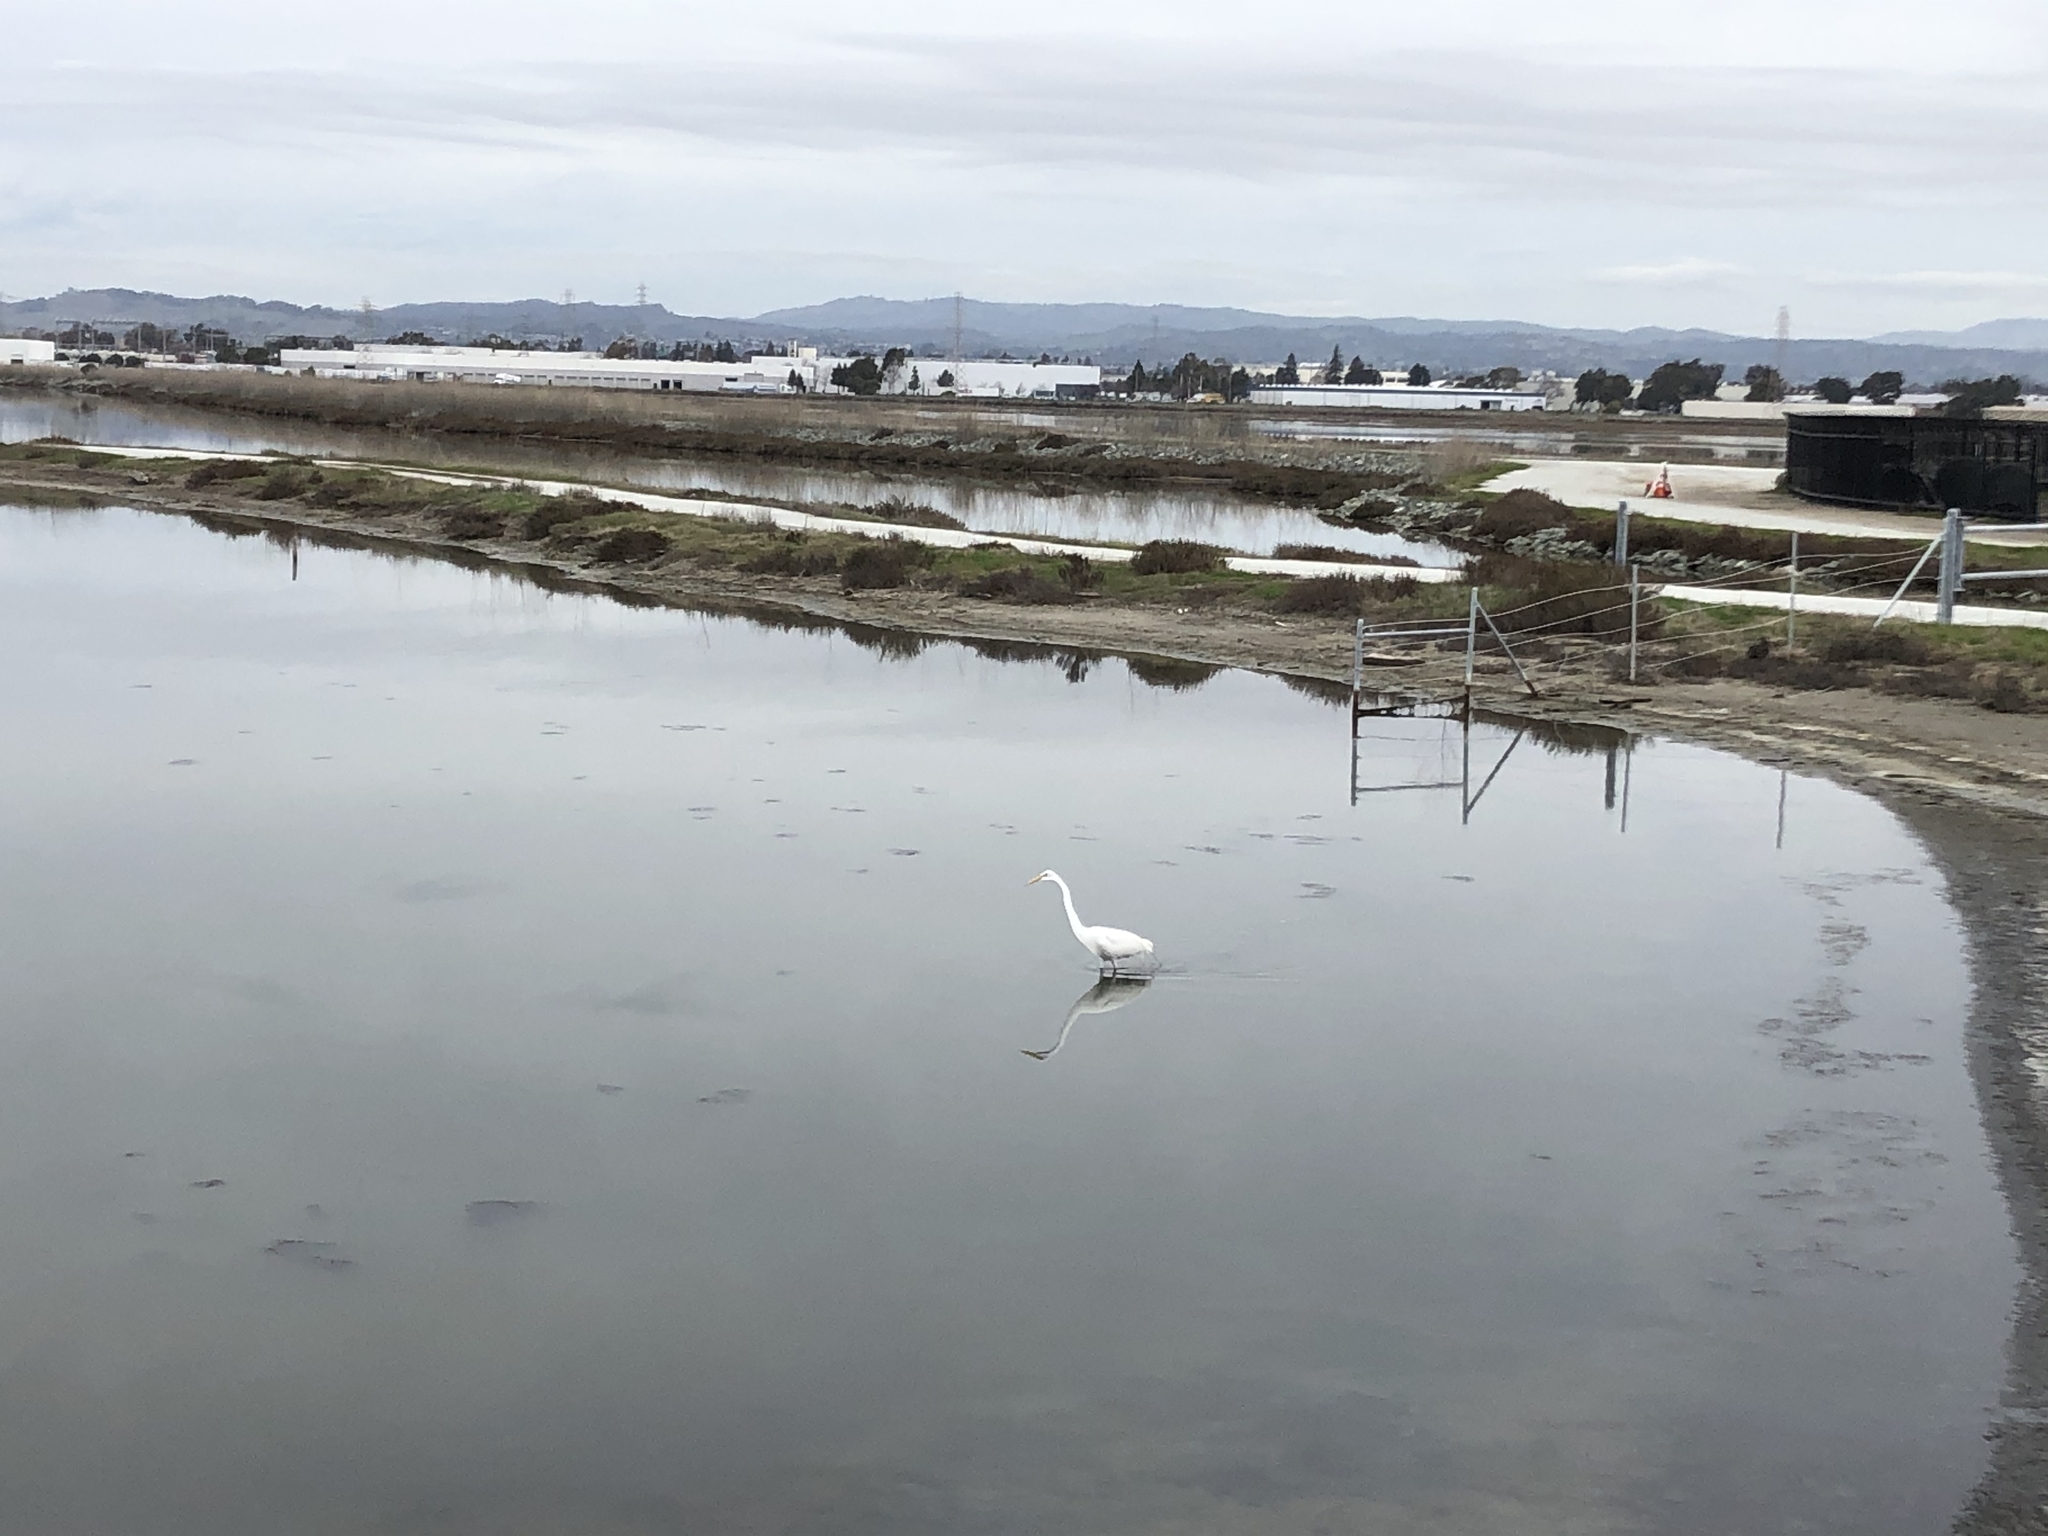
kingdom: Animalia
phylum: Chordata
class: Aves
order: Pelecaniformes
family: Ardeidae
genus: Ardea
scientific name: Ardea alba
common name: Great egret
